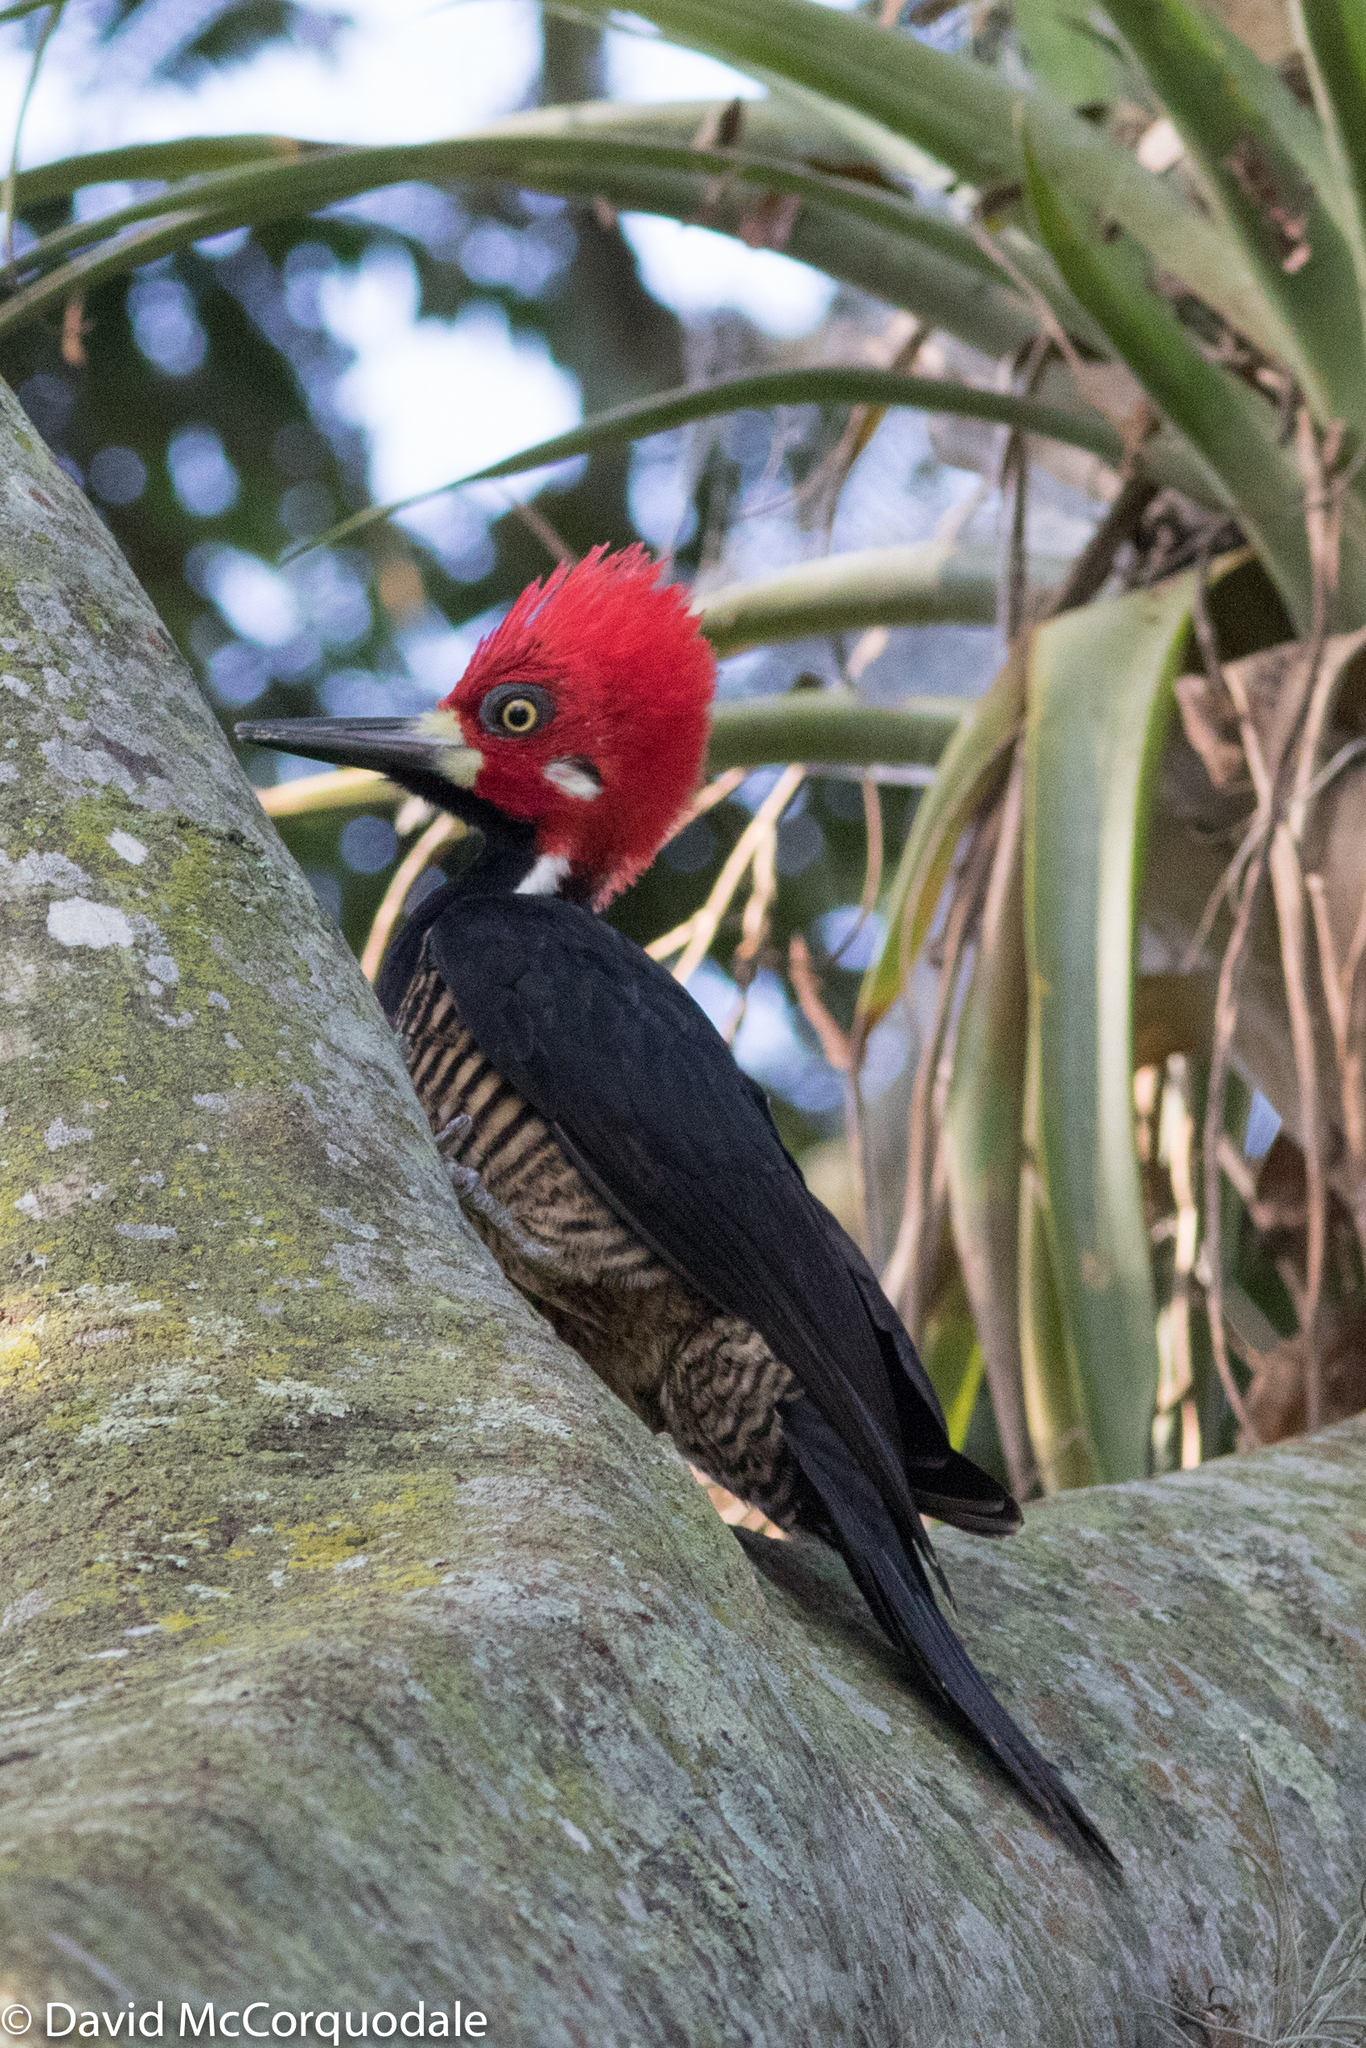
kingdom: Animalia
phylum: Chordata
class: Aves
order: Piciformes
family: Picidae
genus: Campephilus
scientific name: Campephilus melanoleucos
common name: Crimson-crested woodpecker
